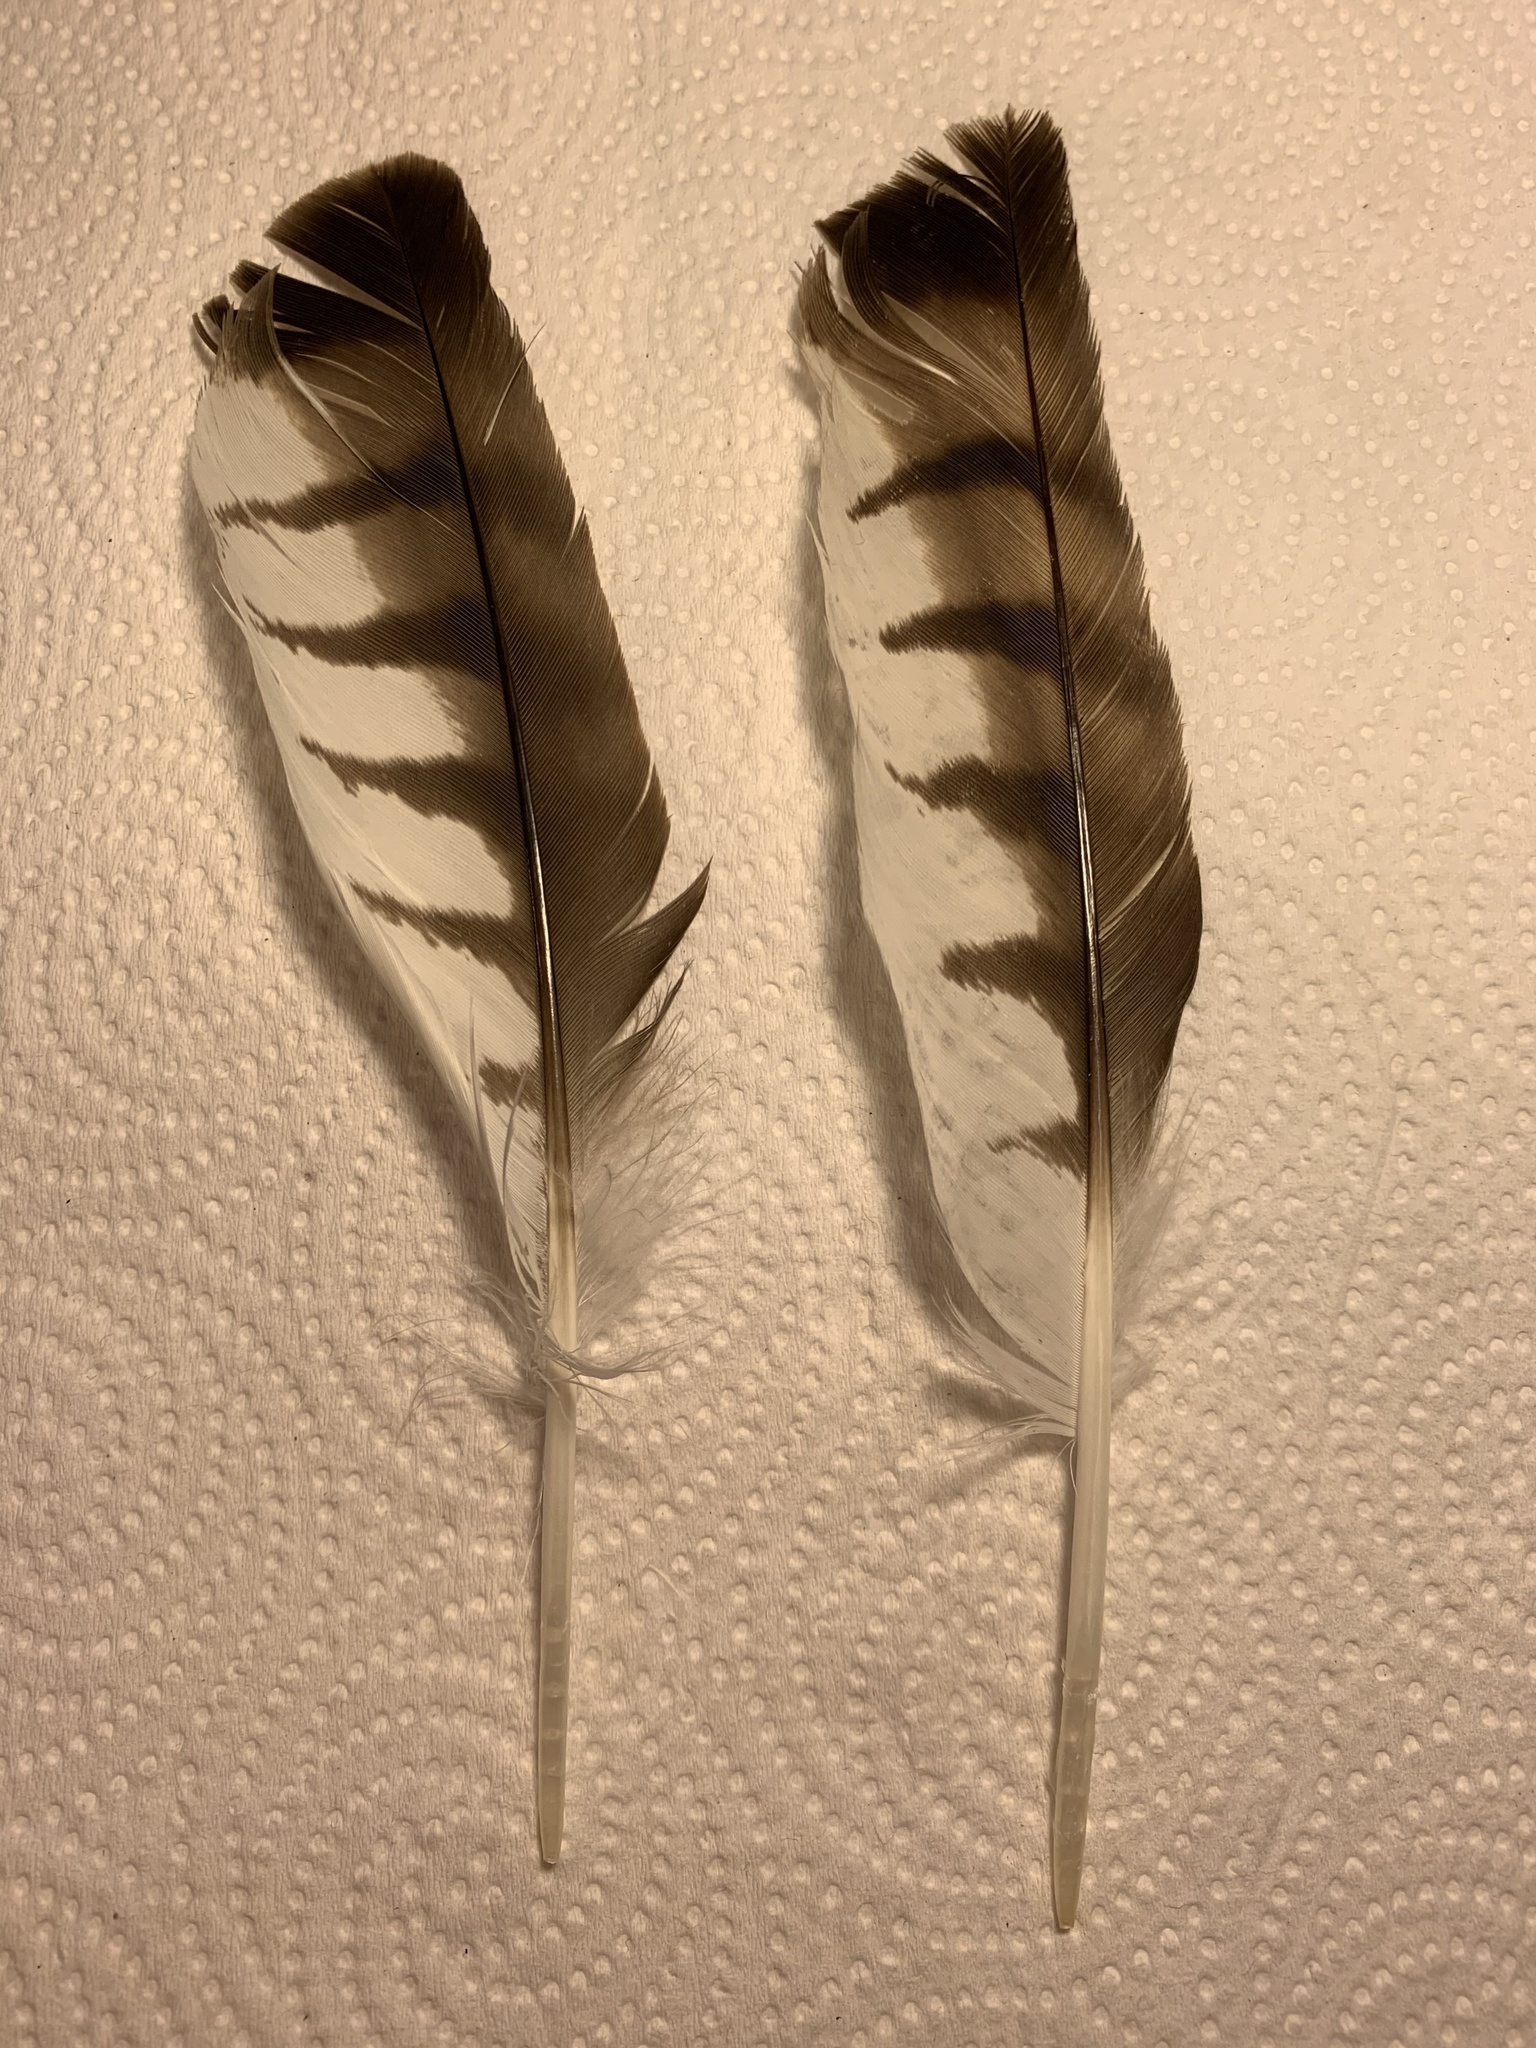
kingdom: Animalia
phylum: Chordata
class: Aves
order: Accipitriformes
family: Accipitridae
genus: Buteo
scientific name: Buteo platypterus
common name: Broad-winged hawk
